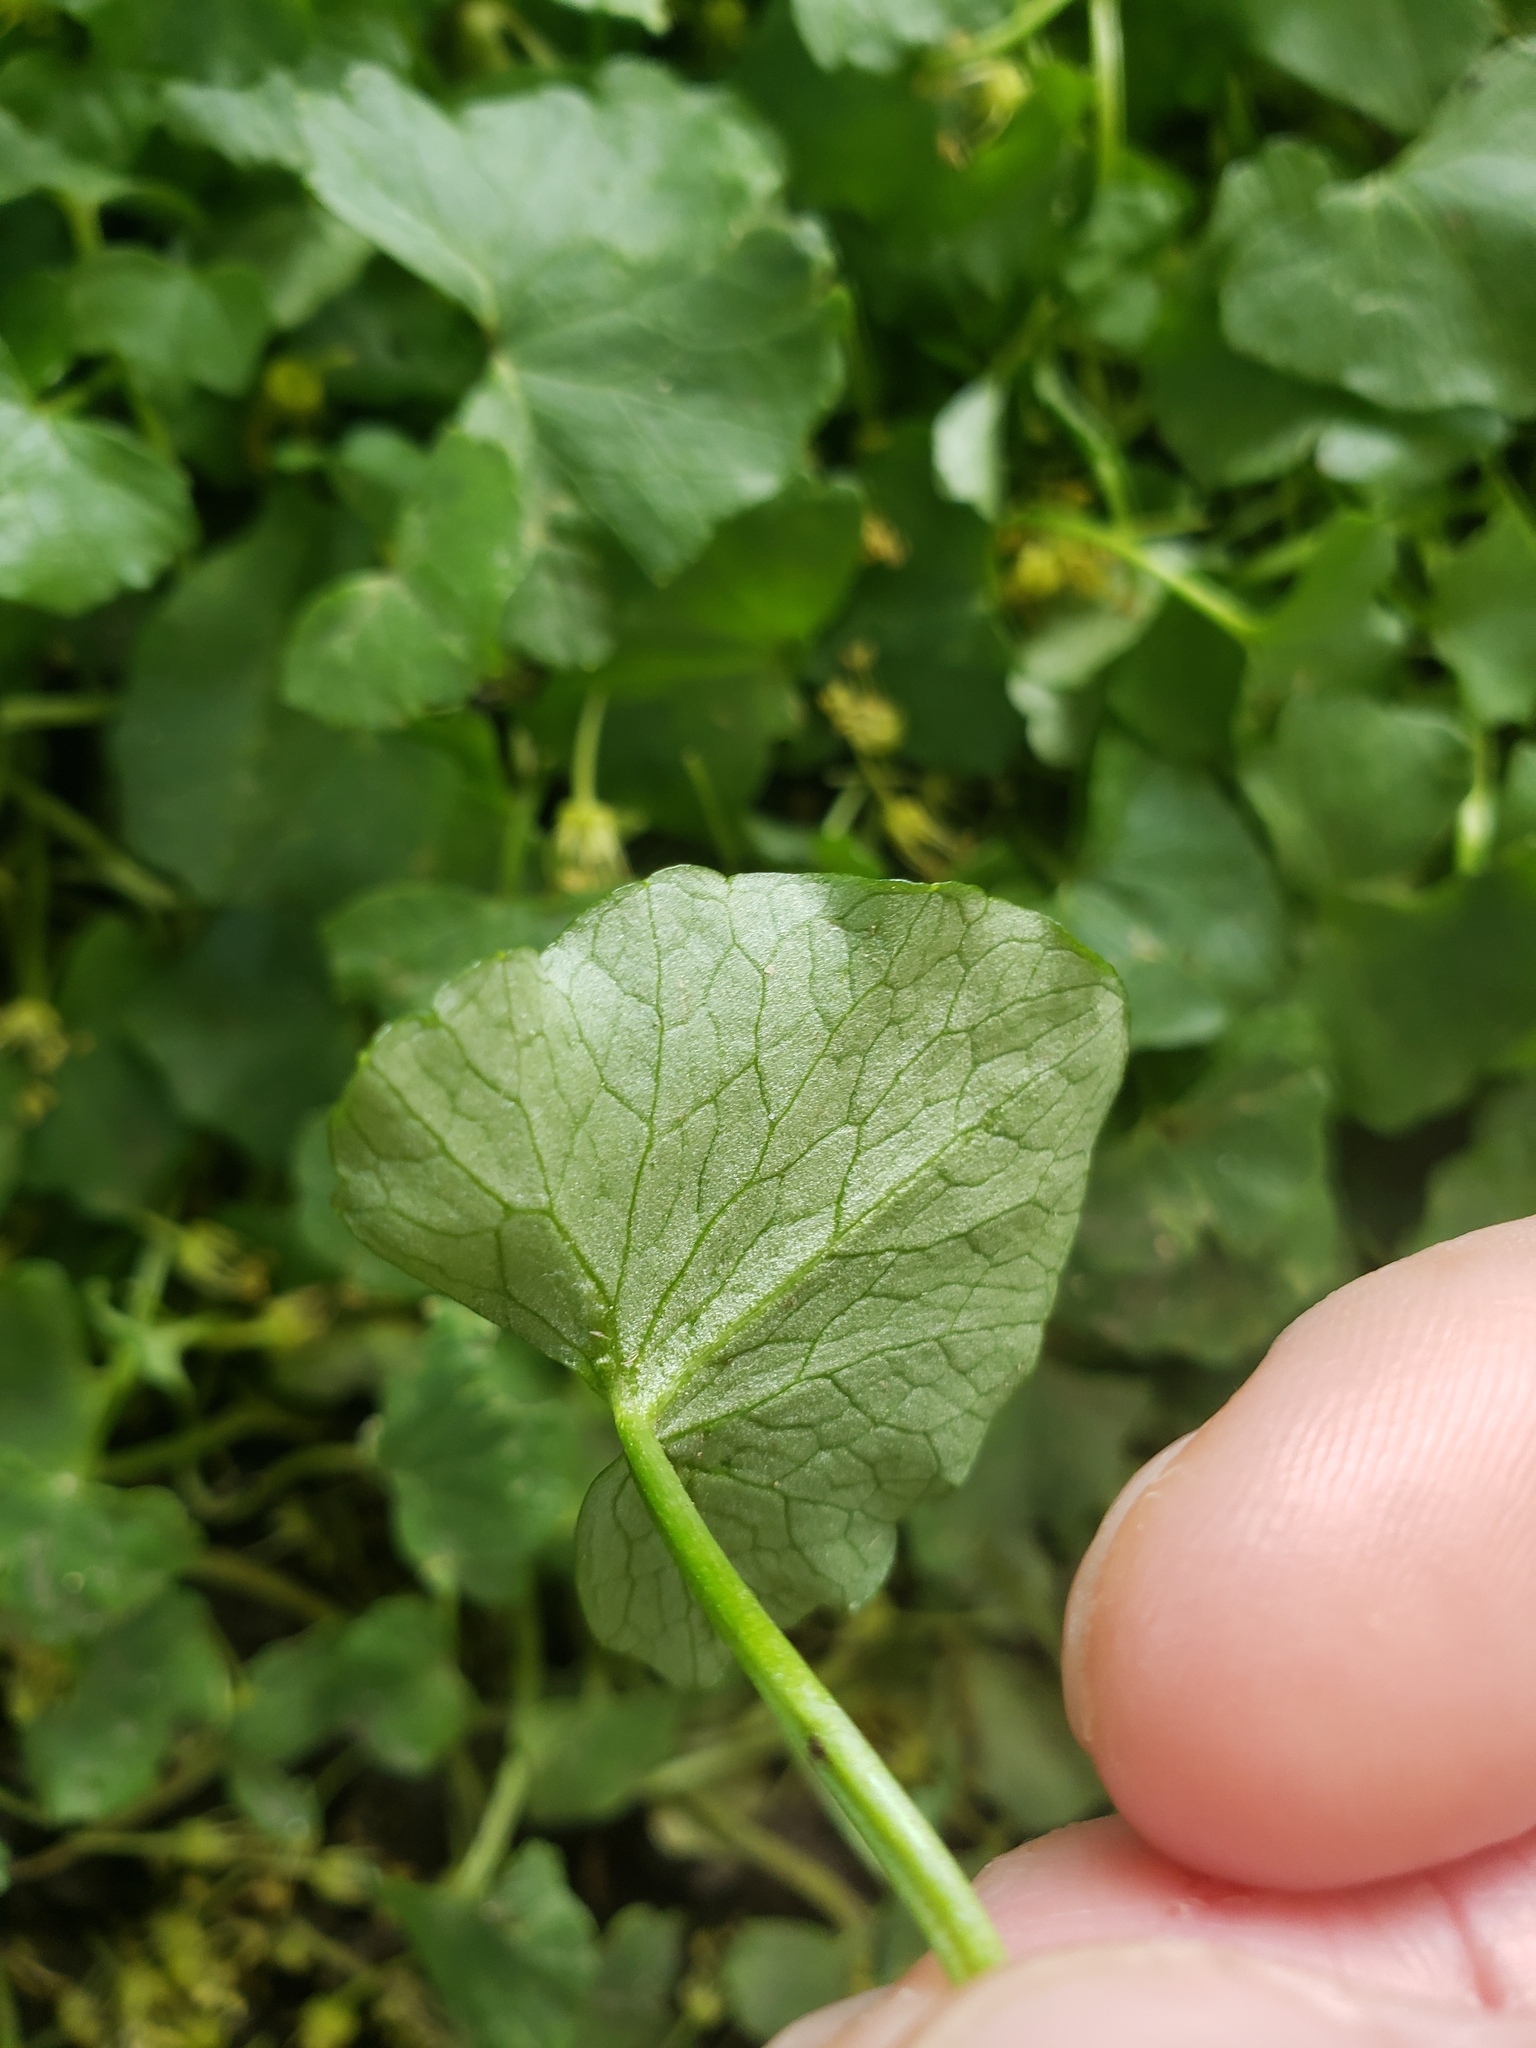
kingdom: Plantae
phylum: Tracheophyta
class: Magnoliopsida
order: Ranunculales
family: Ranunculaceae
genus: Ficaria
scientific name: Ficaria verna
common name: Lesser celandine
